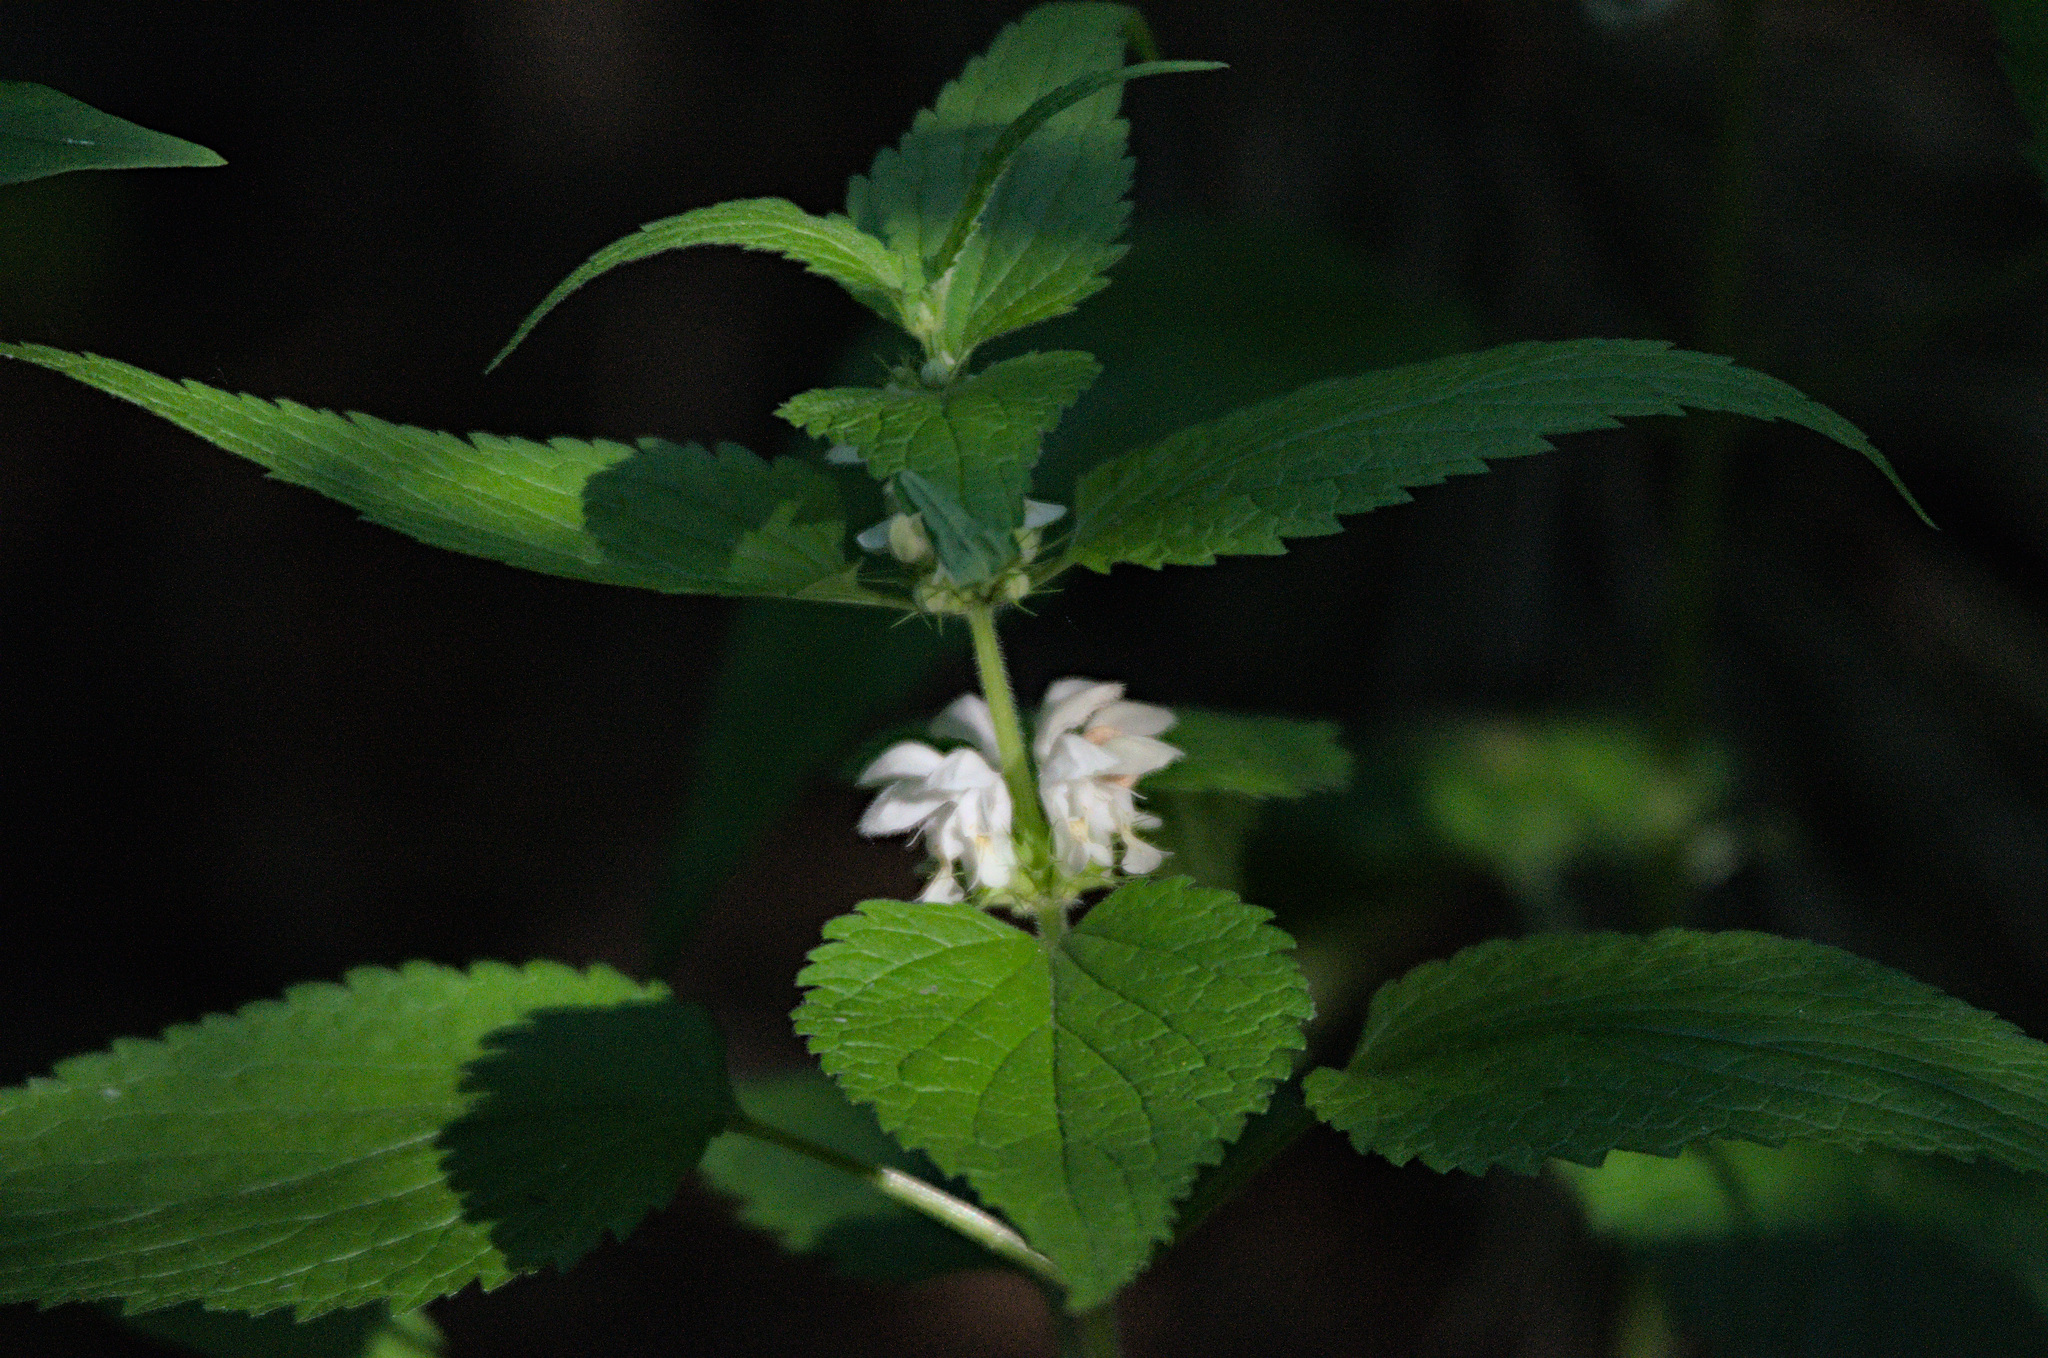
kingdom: Plantae
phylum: Tracheophyta
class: Magnoliopsida
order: Lamiales
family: Lamiaceae
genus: Lamium
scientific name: Lamium album
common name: White dead-nettle
